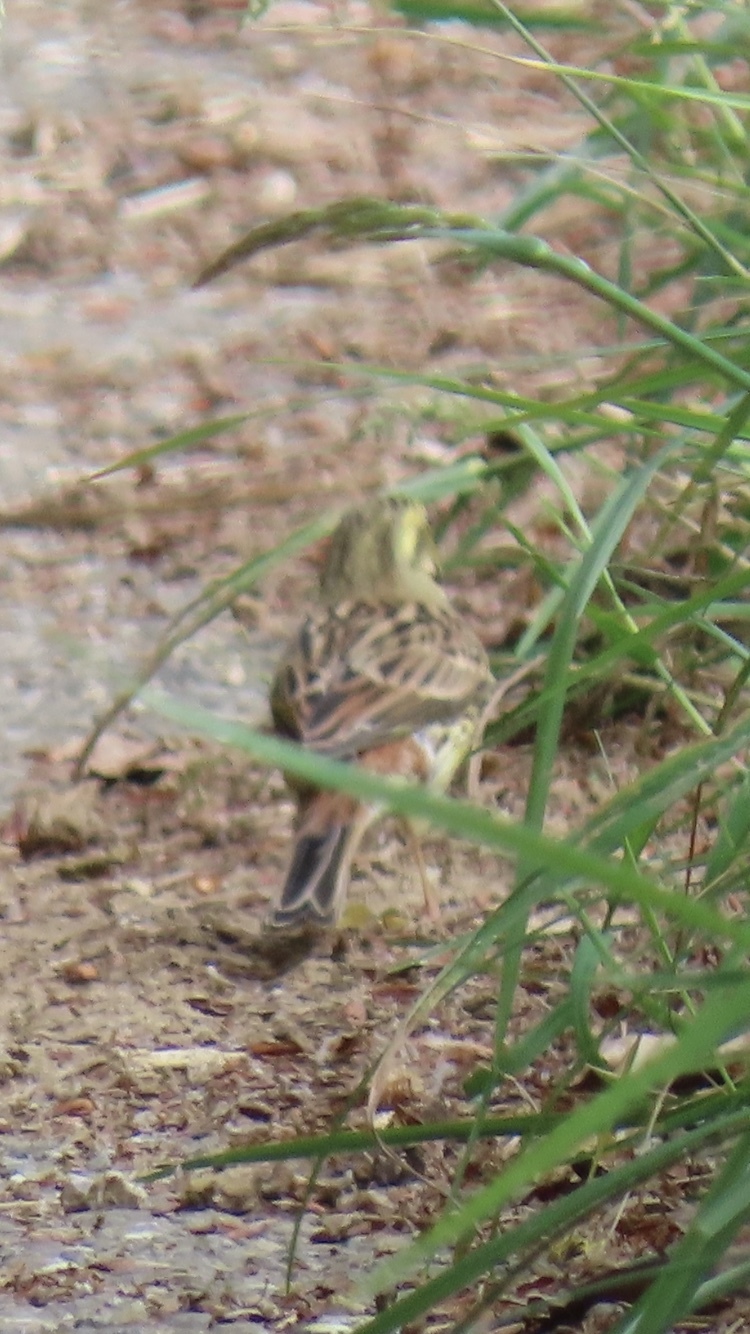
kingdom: Animalia
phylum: Chordata
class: Aves
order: Passeriformes
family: Emberizidae
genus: Emberiza
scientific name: Emberiza citrinella
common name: Yellowhammer
